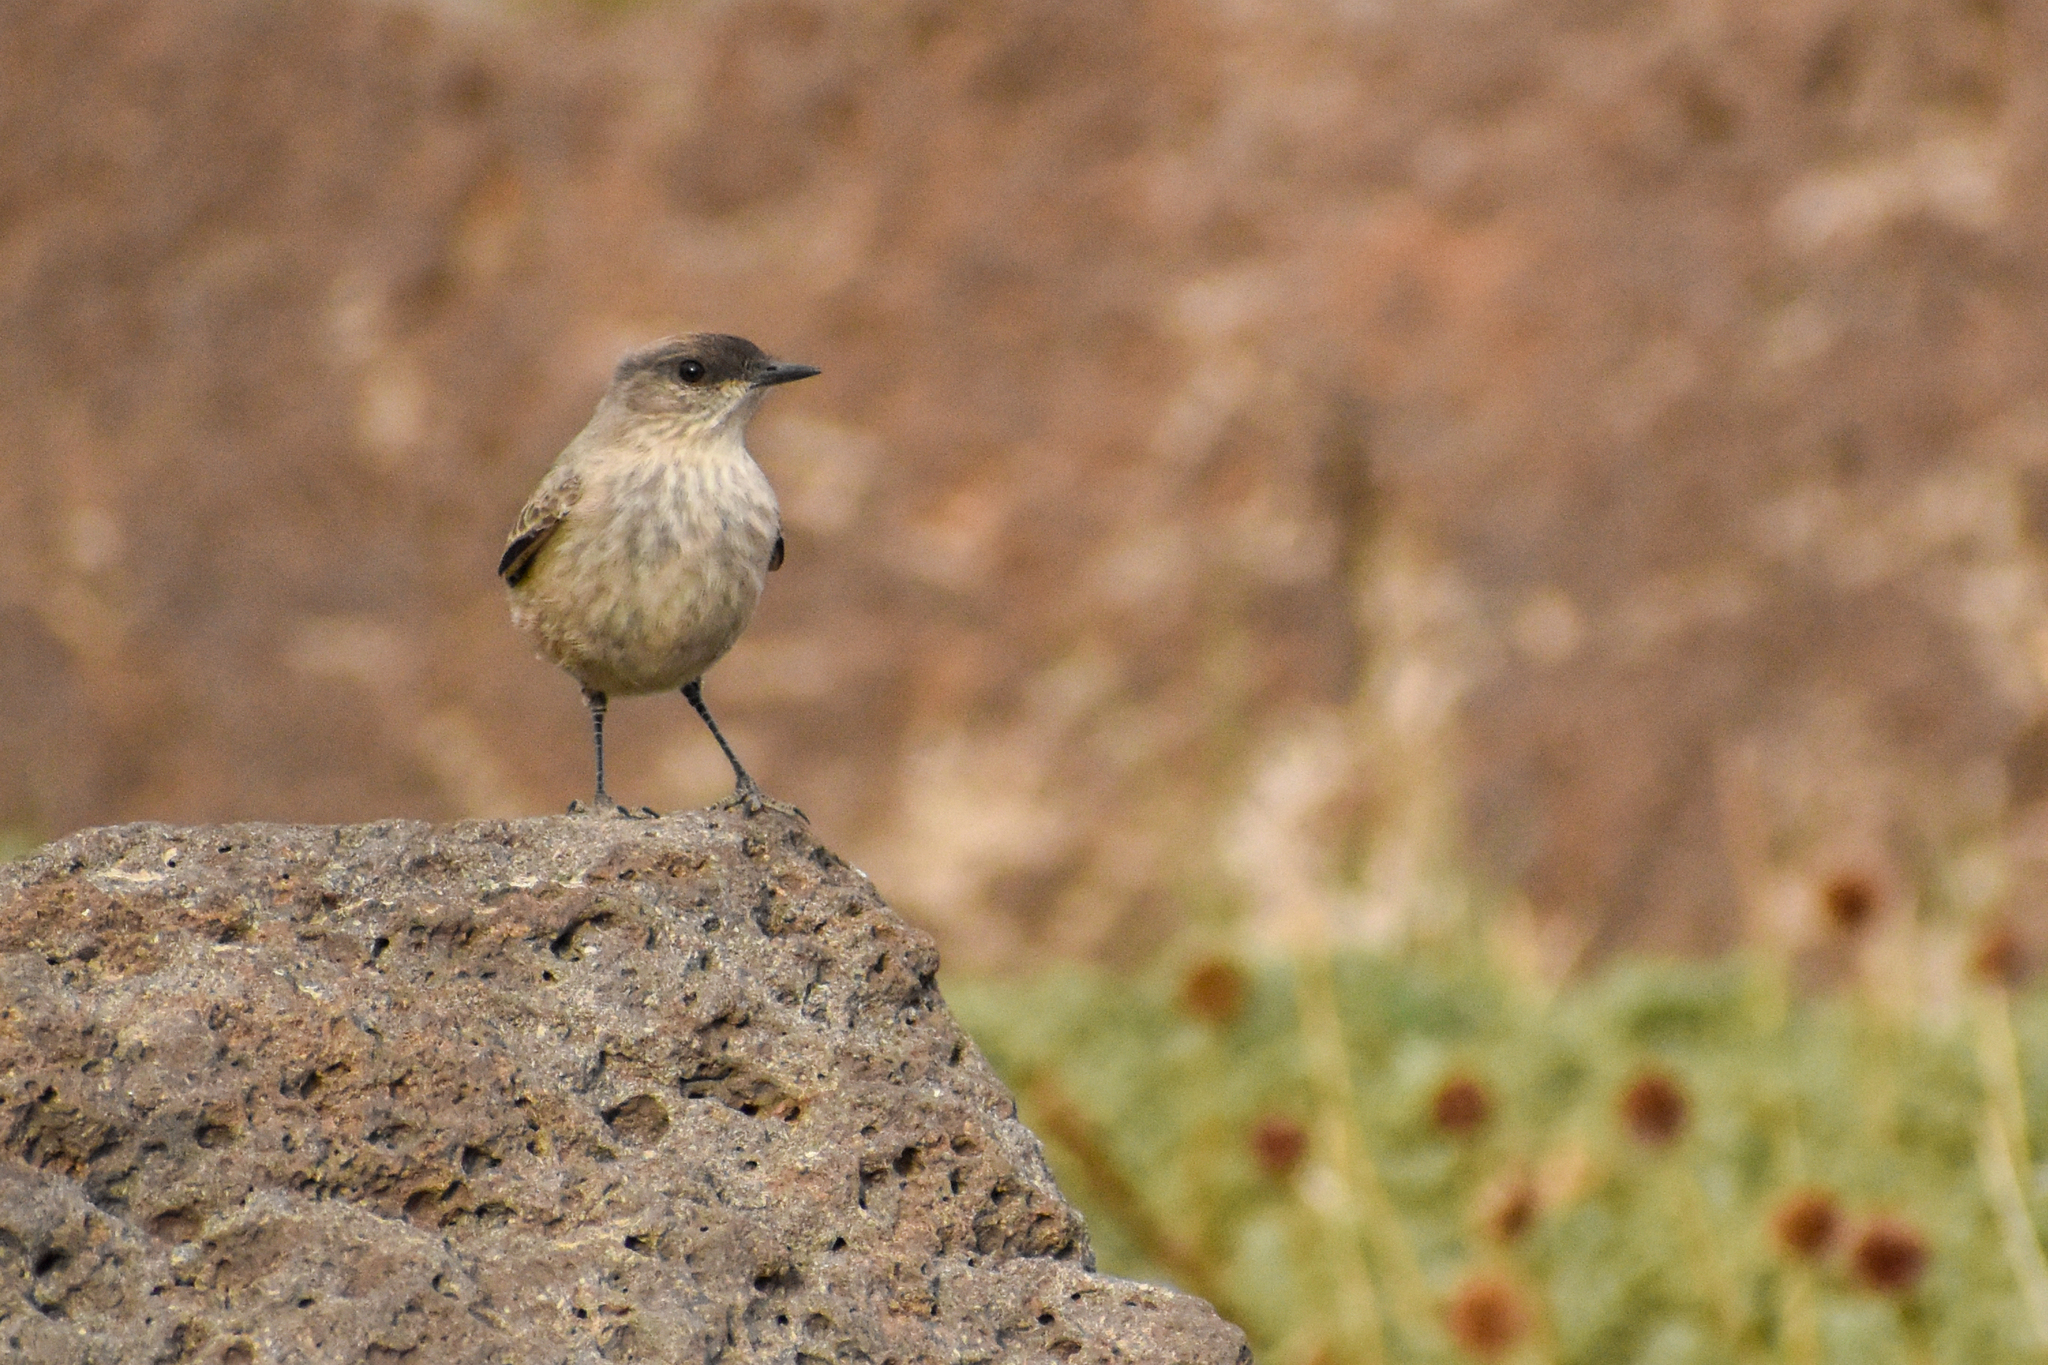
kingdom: Animalia
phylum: Chordata
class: Aves
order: Passeriformes
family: Tyrannidae
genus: Muscisaxicola
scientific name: Muscisaxicola capistratus
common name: Cinnamon-bellied ground tyrant
